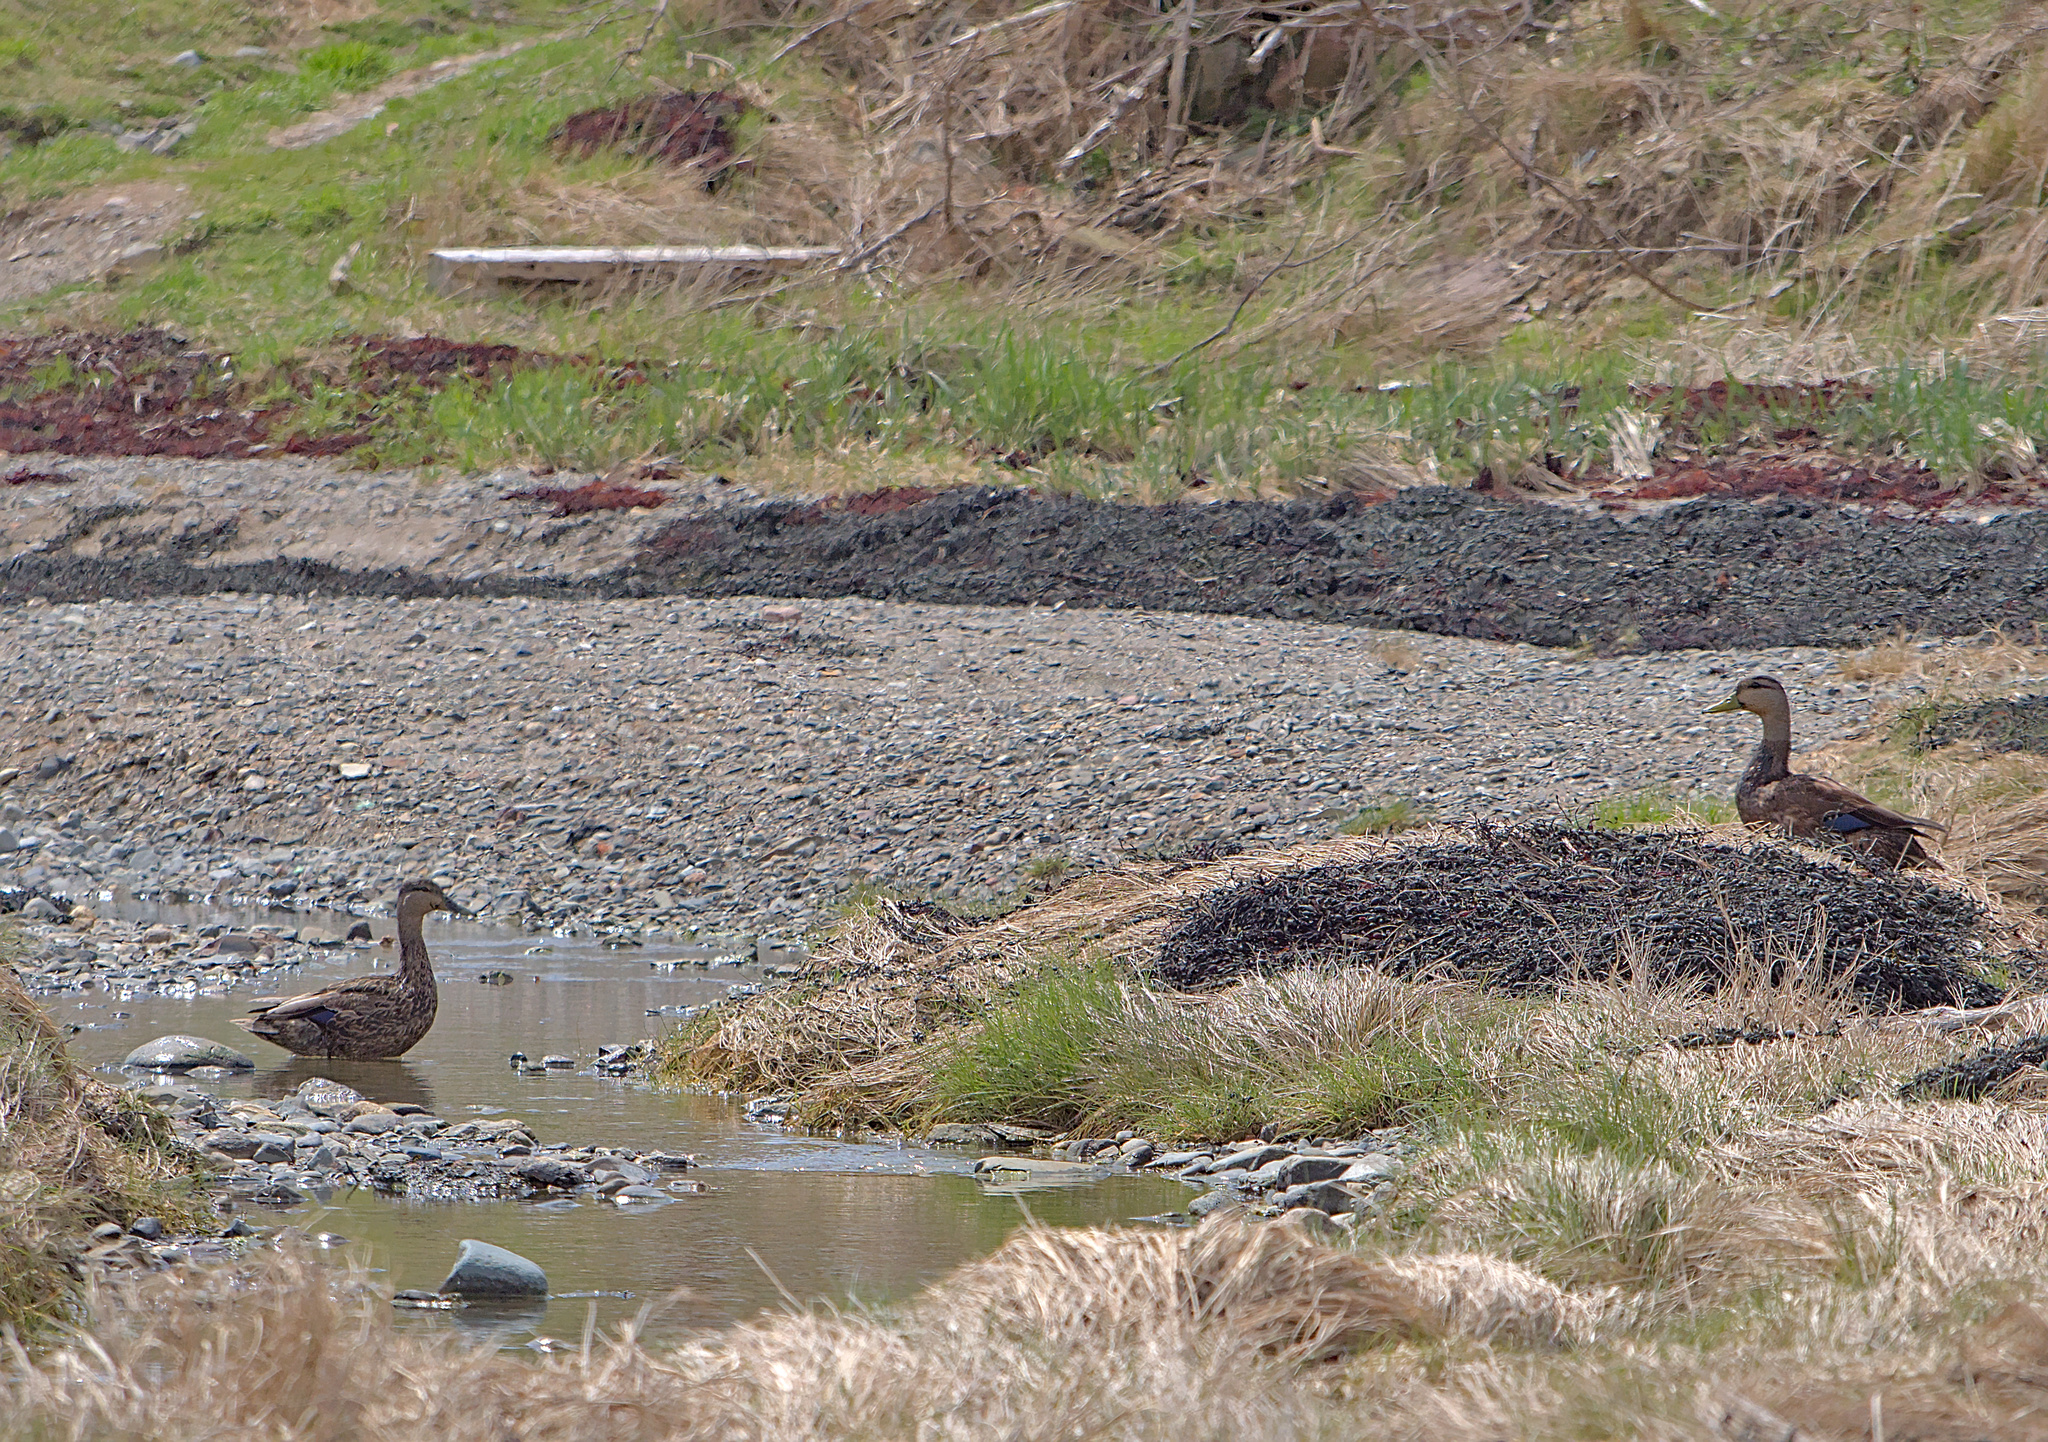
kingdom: Animalia
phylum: Chordata
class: Aves
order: Anseriformes
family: Anatidae
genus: Anas
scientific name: Anas rubripes
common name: American black duck
